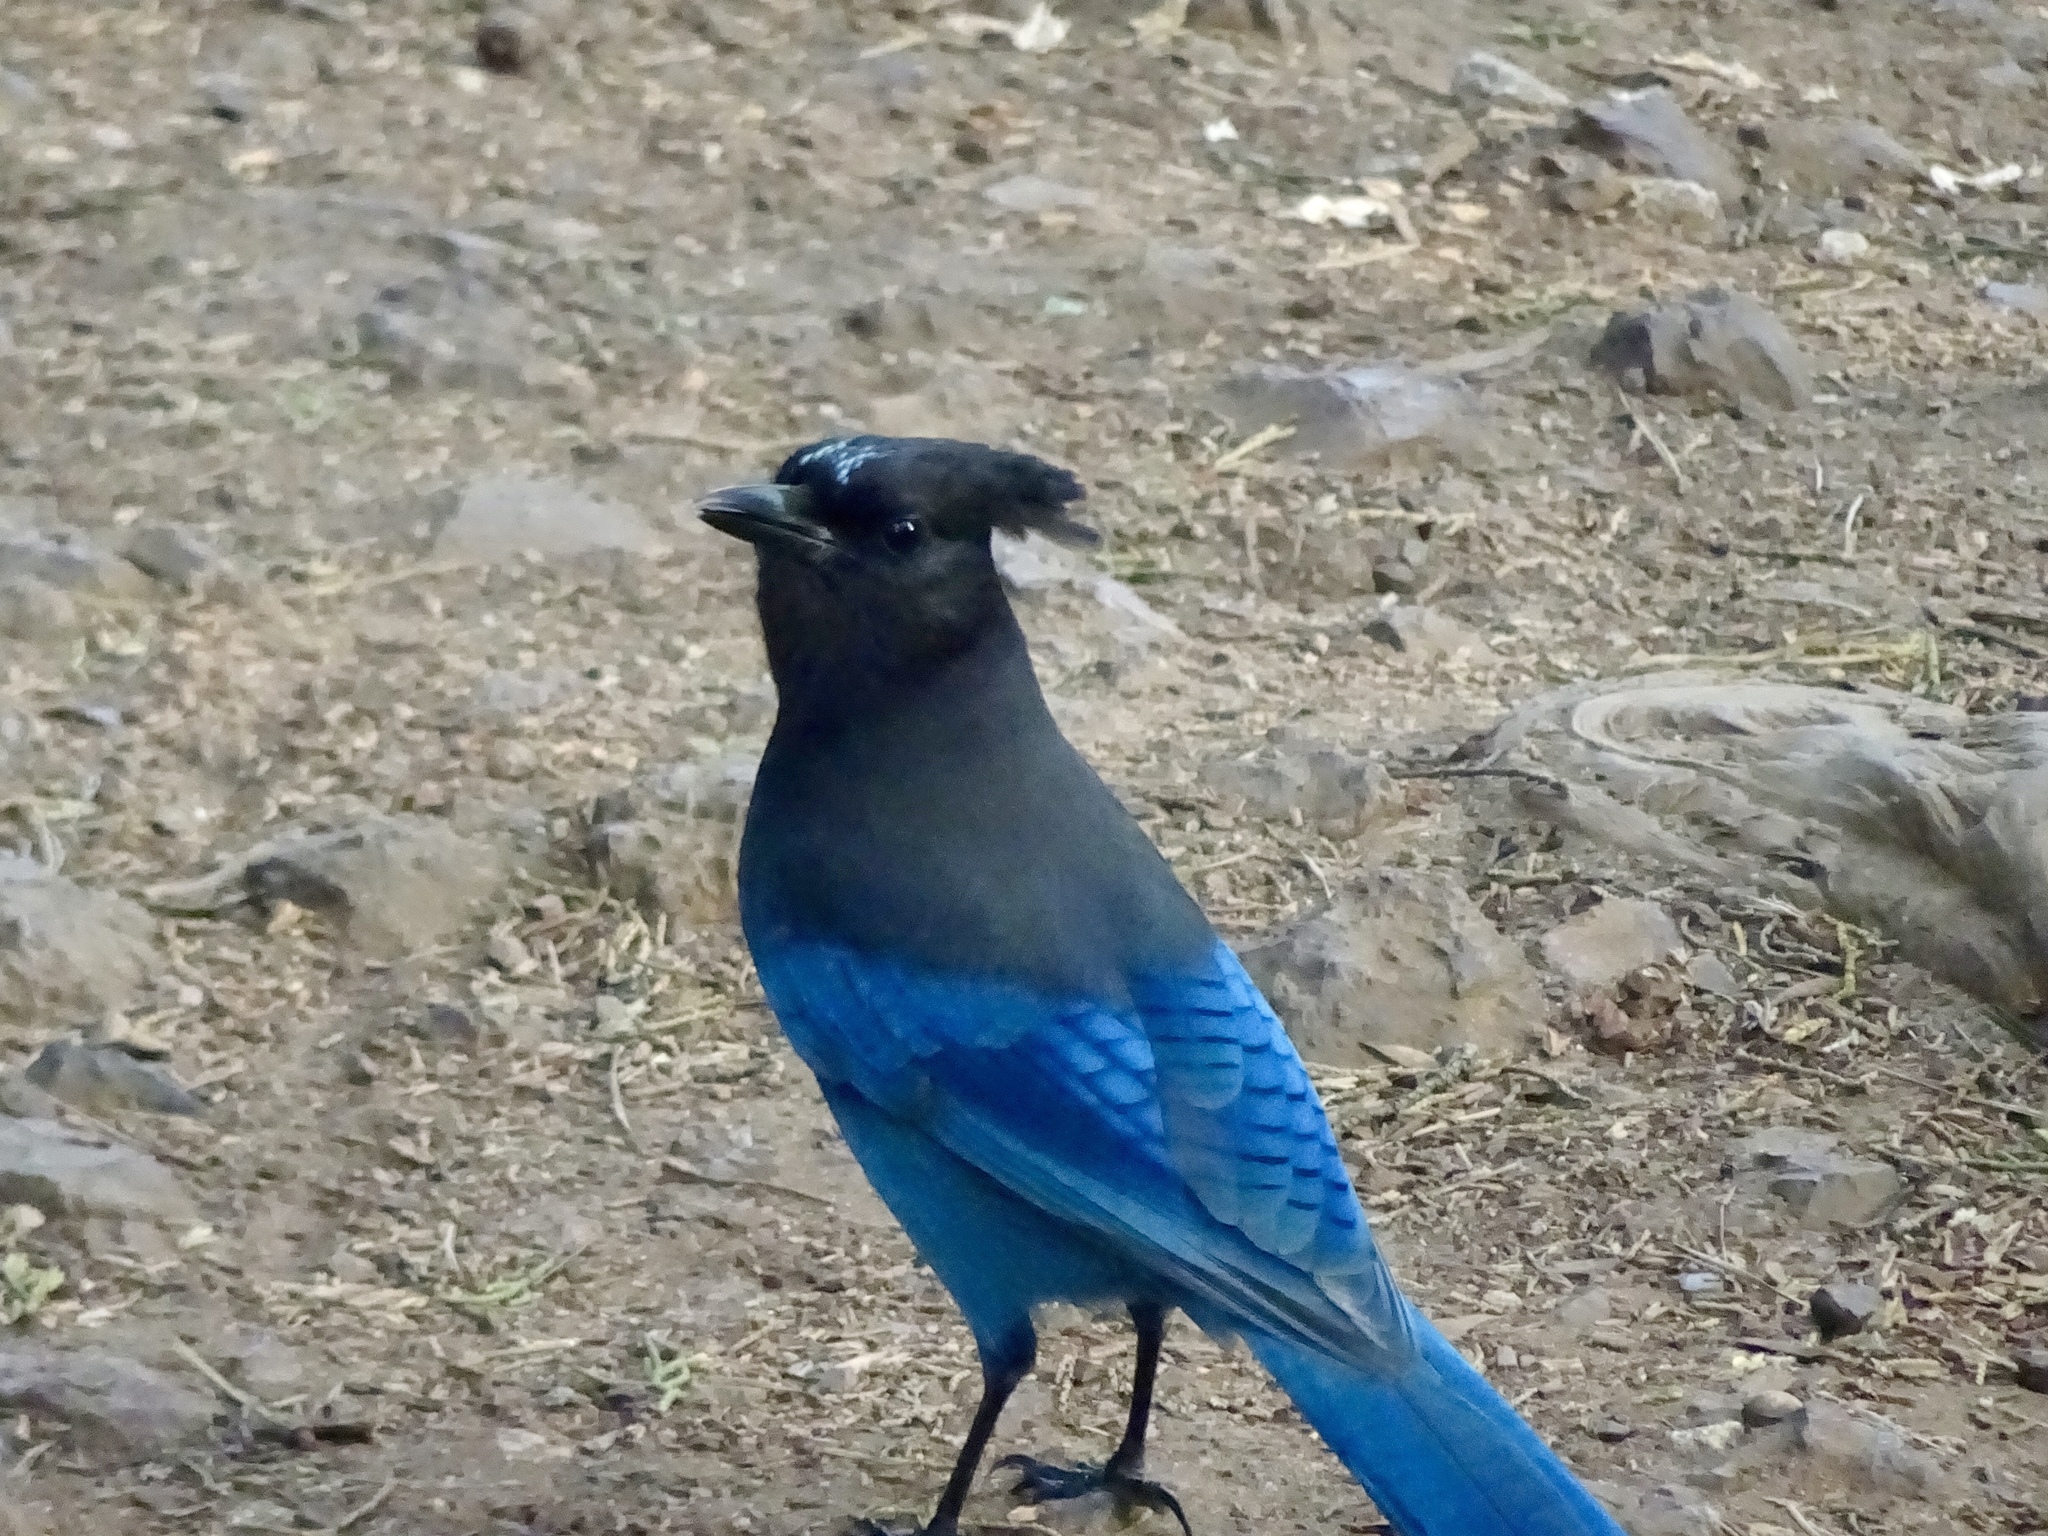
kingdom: Animalia
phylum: Chordata
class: Aves
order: Passeriformes
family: Corvidae
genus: Cyanocitta
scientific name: Cyanocitta stelleri
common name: Steller's jay
